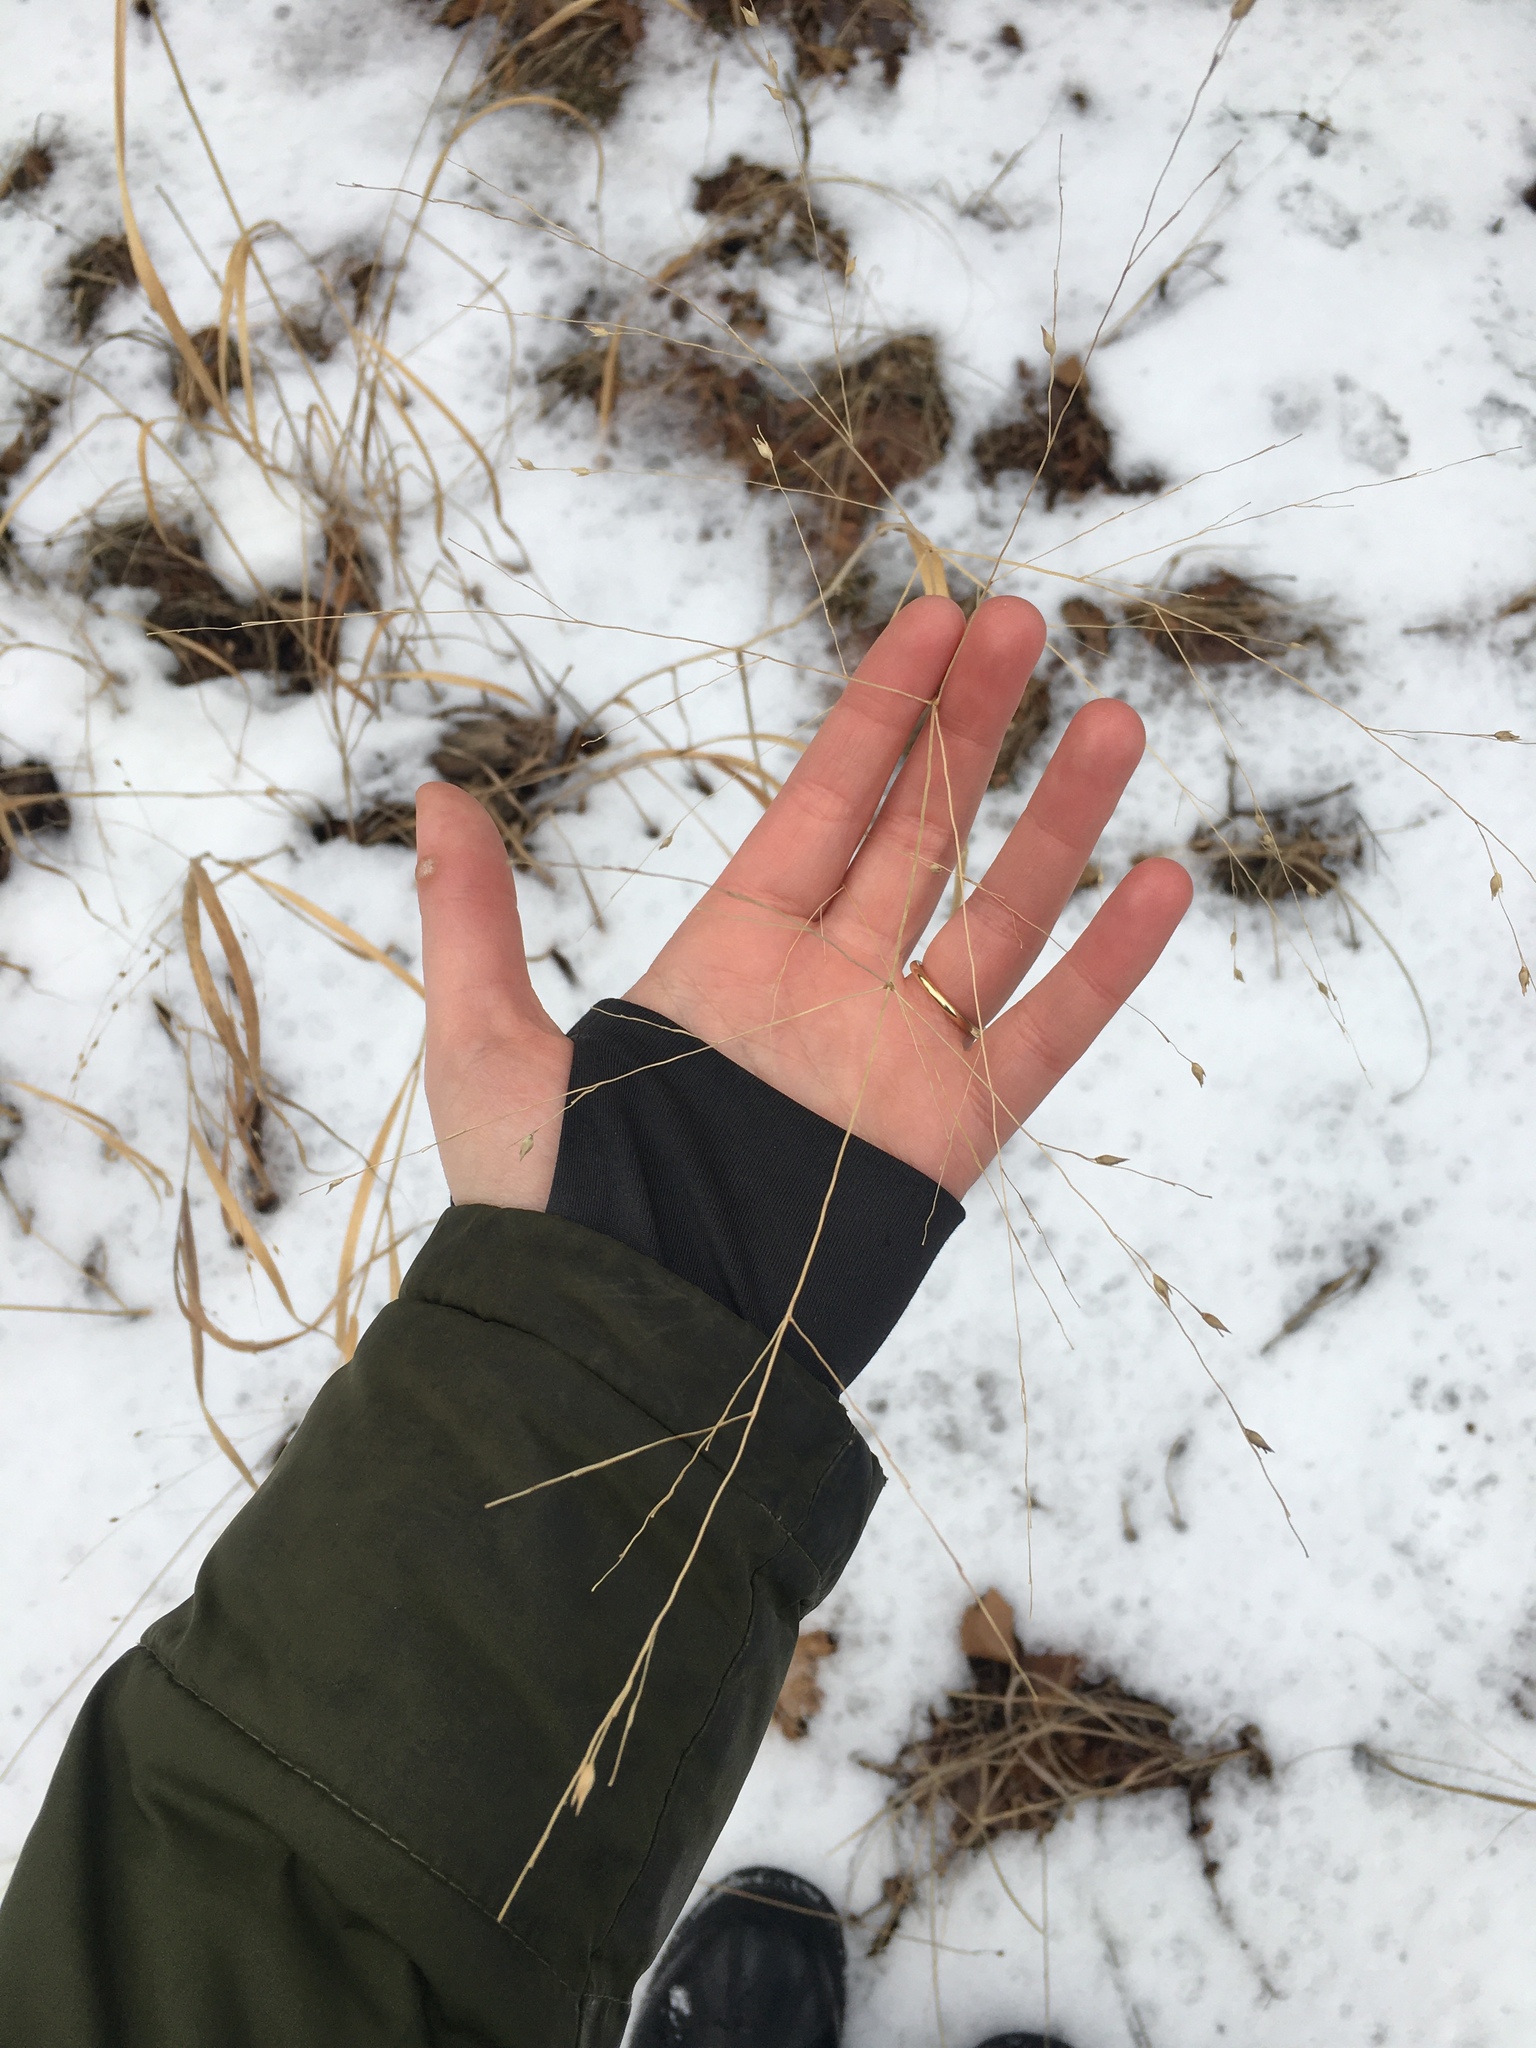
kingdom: Plantae
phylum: Tracheophyta
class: Liliopsida
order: Poales
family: Poaceae
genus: Panicum
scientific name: Panicum virgatum
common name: Switchgrass
